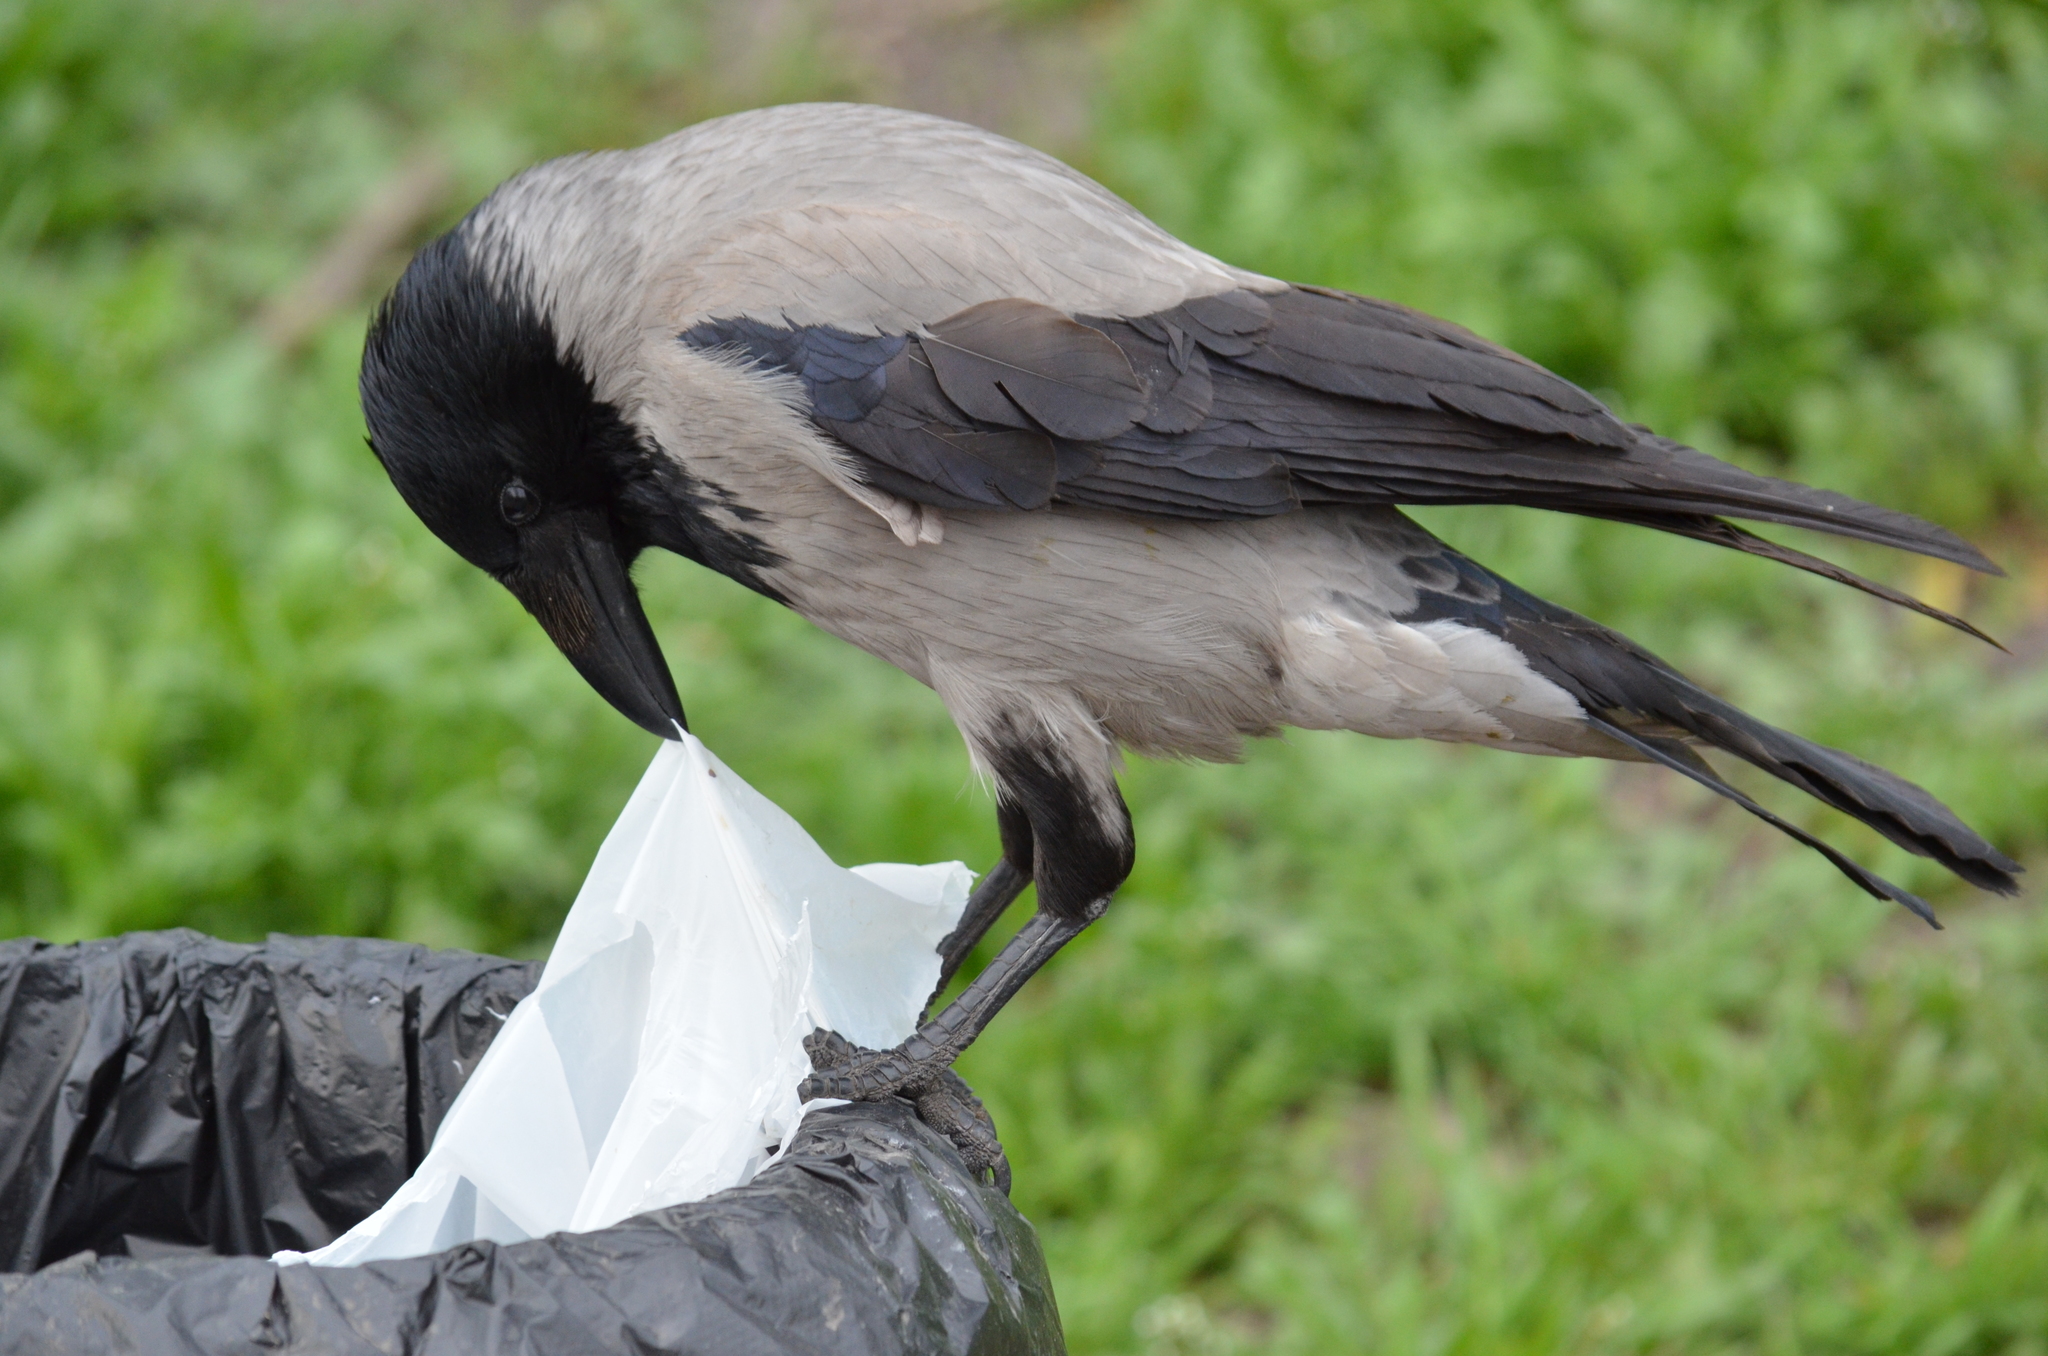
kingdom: Animalia
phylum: Chordata
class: Aves
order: Passeriformes
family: Corvidae
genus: Corvus
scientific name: Corvus cornix
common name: Hooded crow
